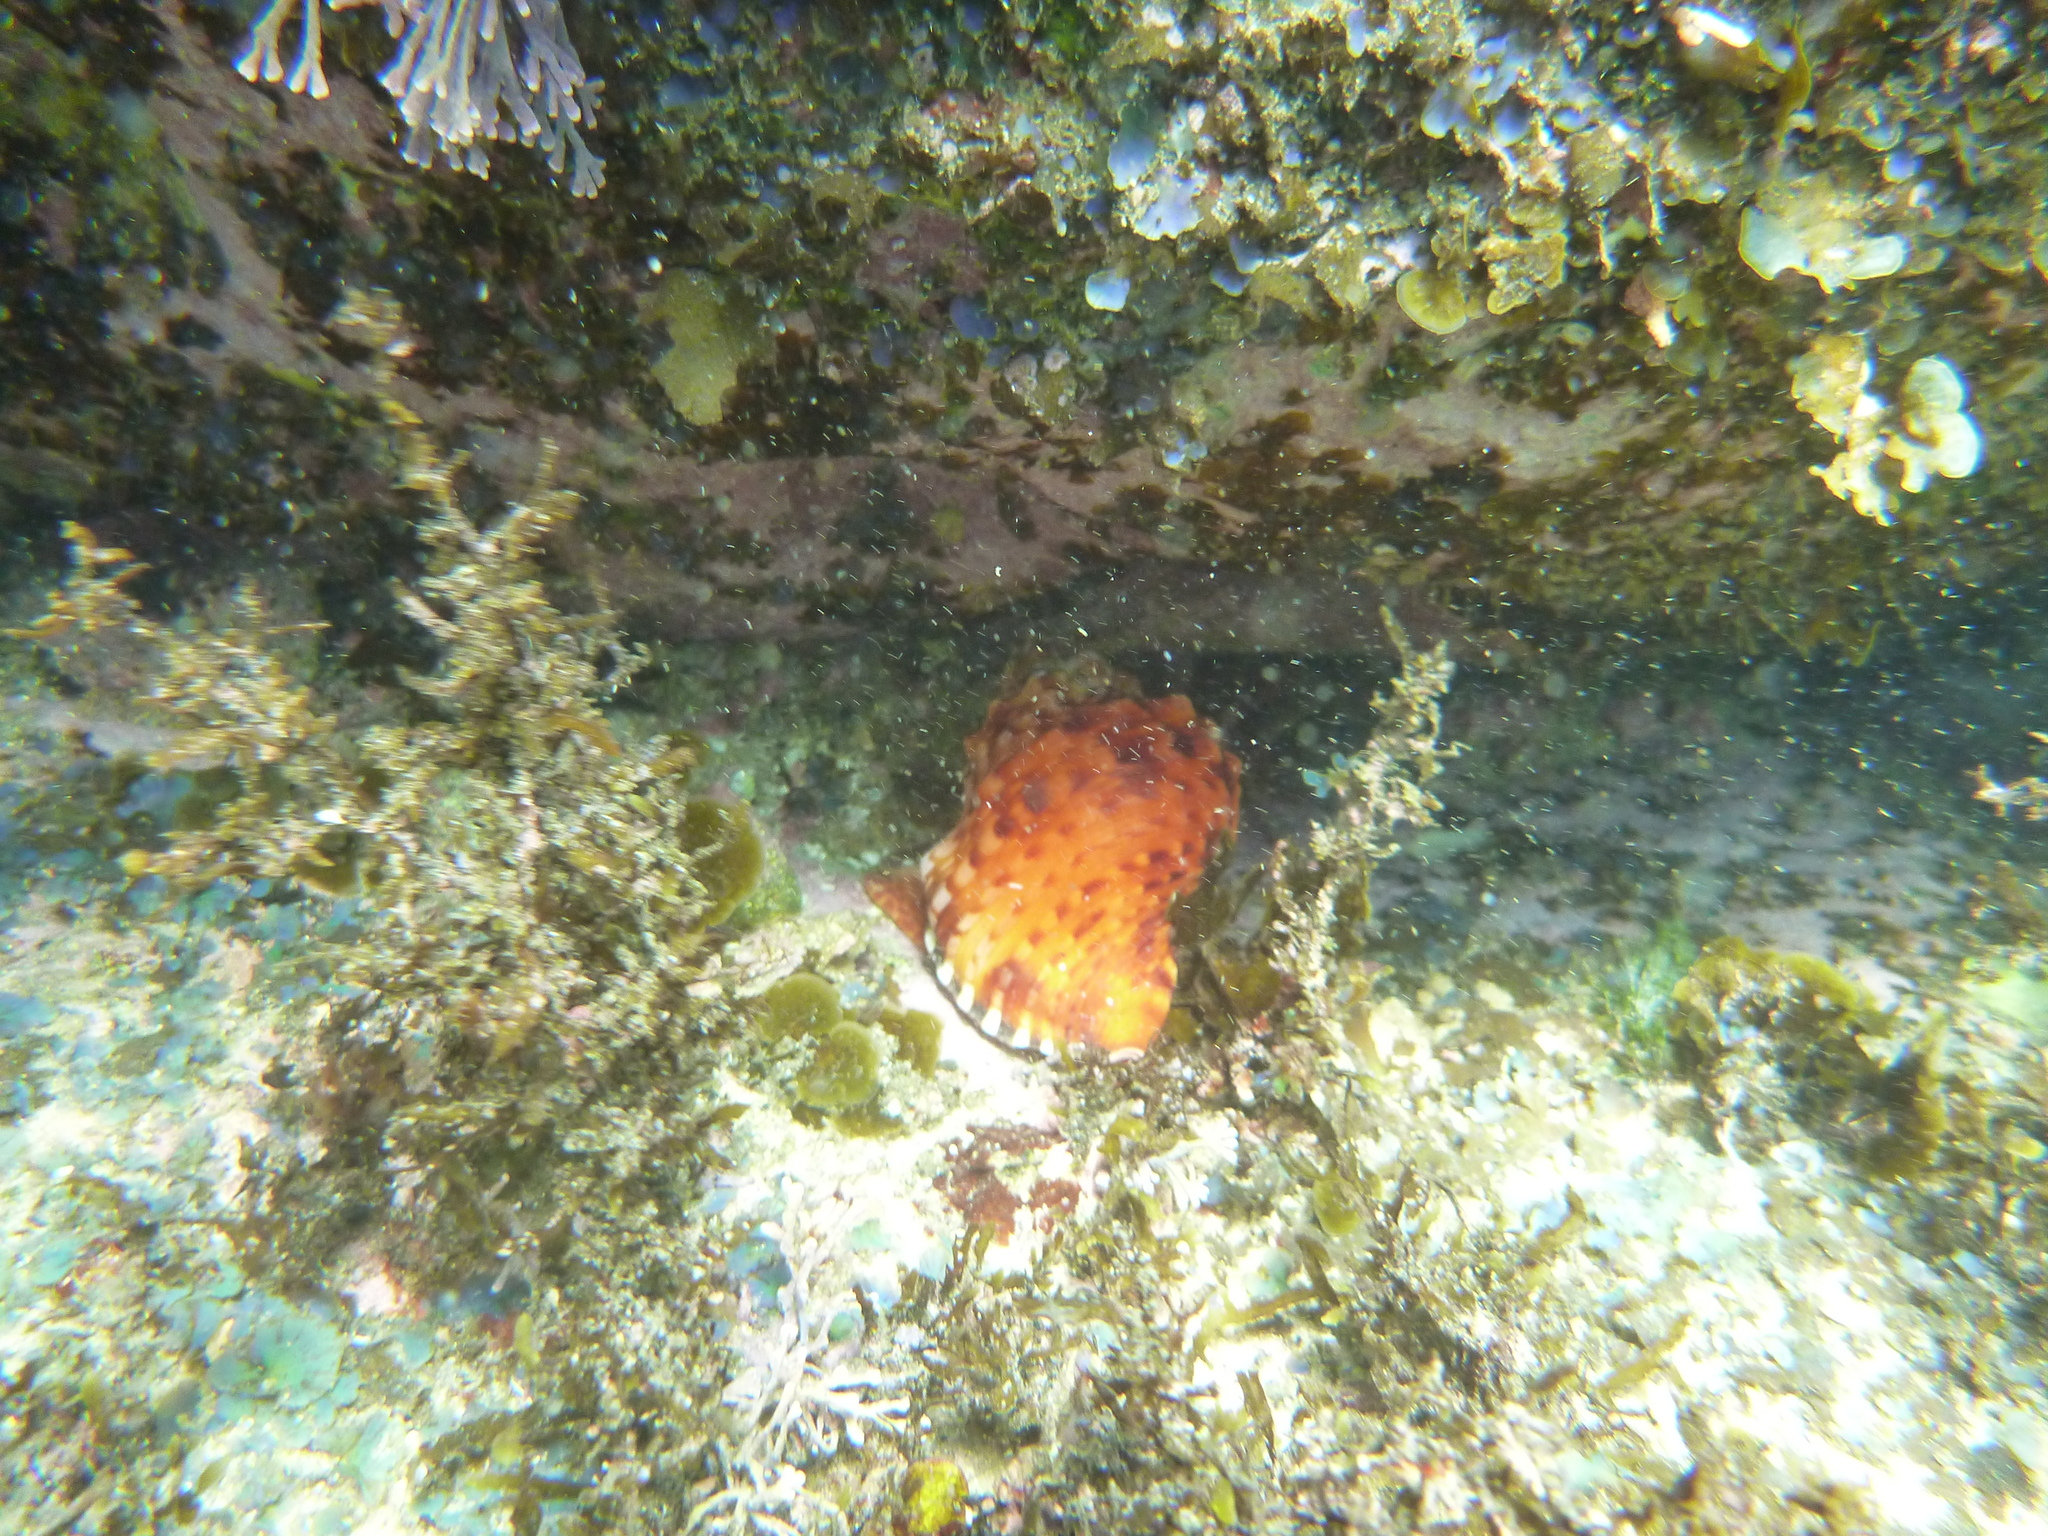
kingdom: Animalia
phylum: Mollusca
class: Gastropoda
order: Littorinimorpha
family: Charoniidae
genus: Charonia
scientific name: Charonia lampas
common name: Knobbed triton
